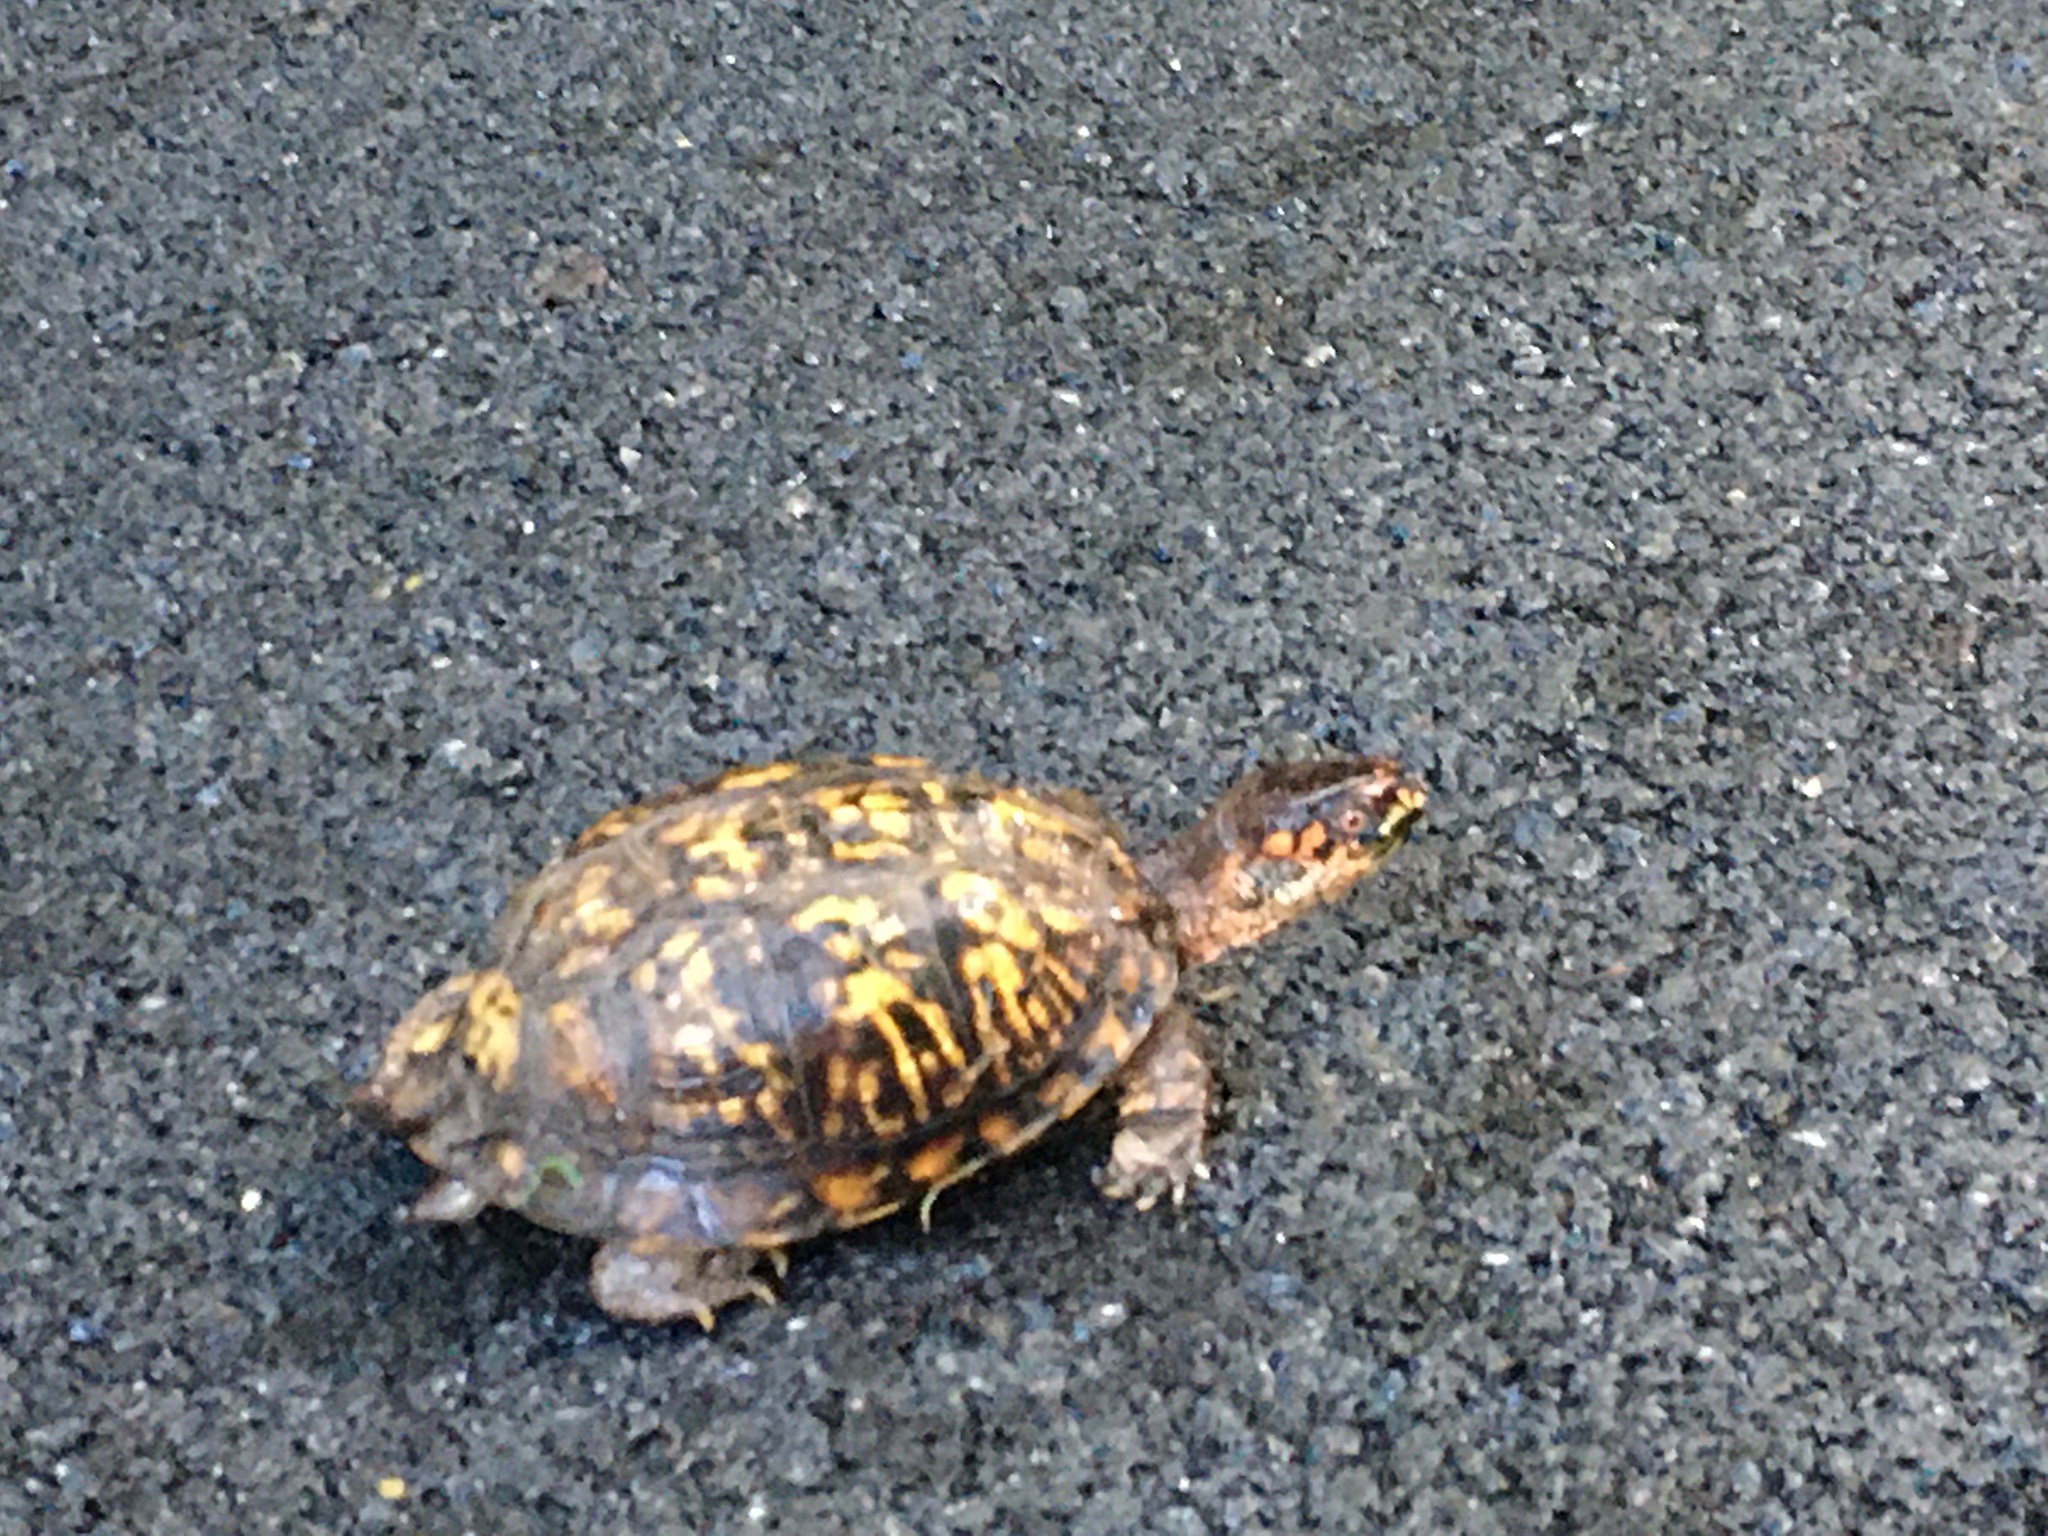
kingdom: Animalia
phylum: Chordata
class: Testudines
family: Emydidae
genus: Terrapene
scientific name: Terrapene carolina
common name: Common box turtle
